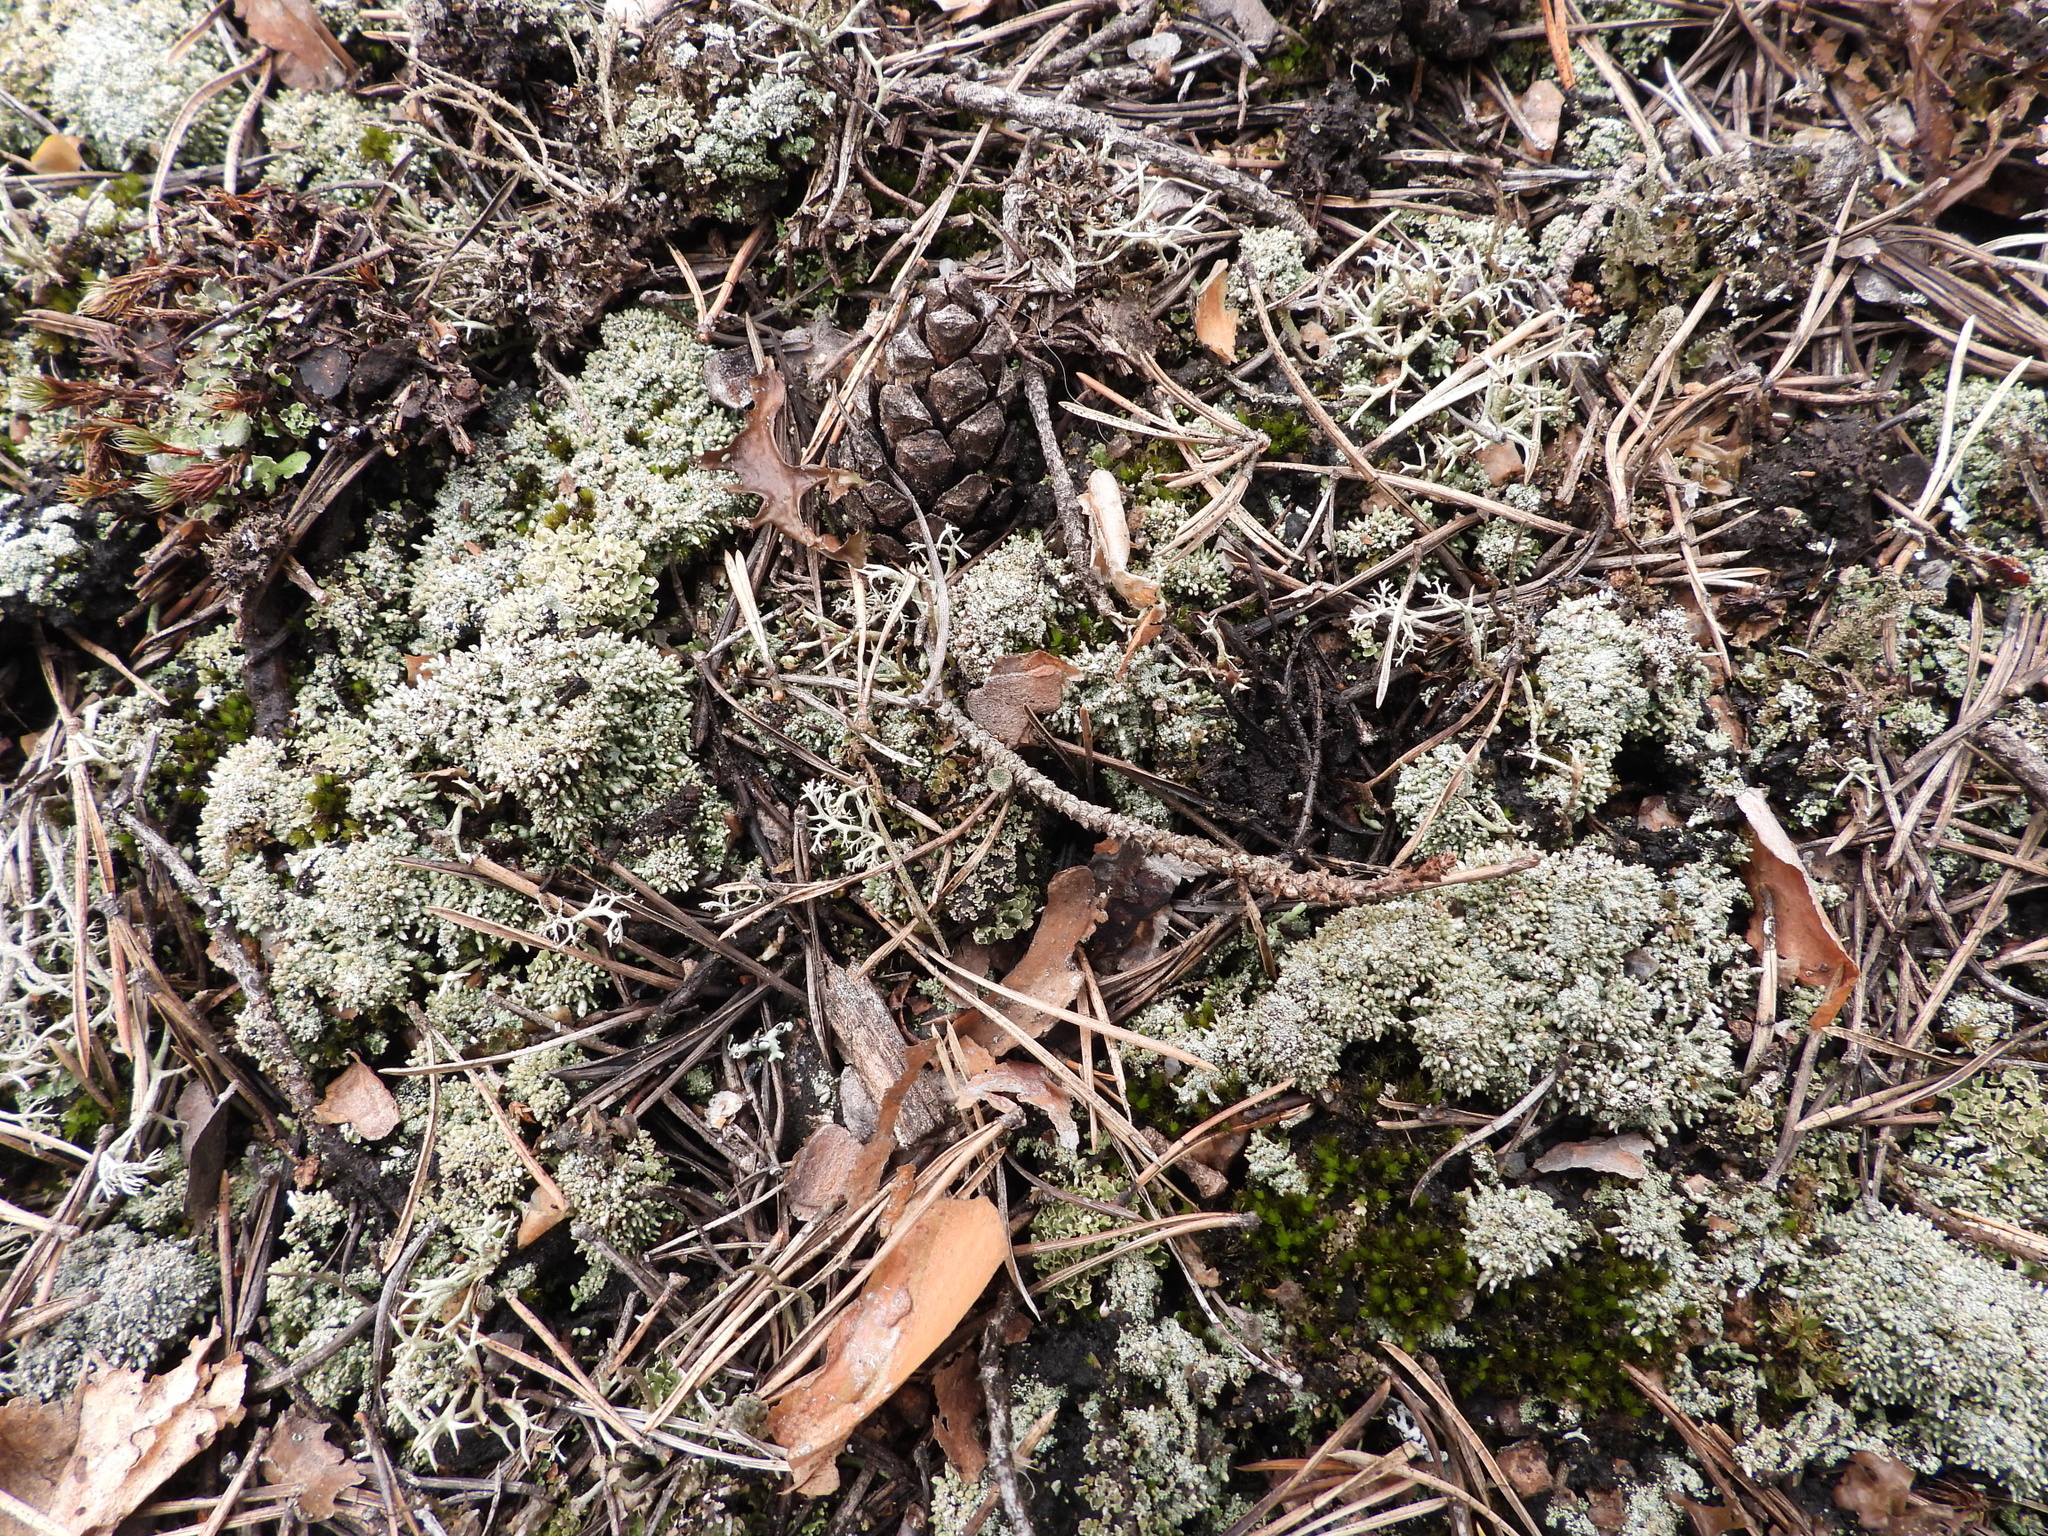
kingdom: Fungi
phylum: Ascomycota
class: Lecanoromycetes
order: Lecanorales
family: Cladoniaceae
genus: Pycnothelia
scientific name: Pycnothelia papillaria
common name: Nipple lichen
